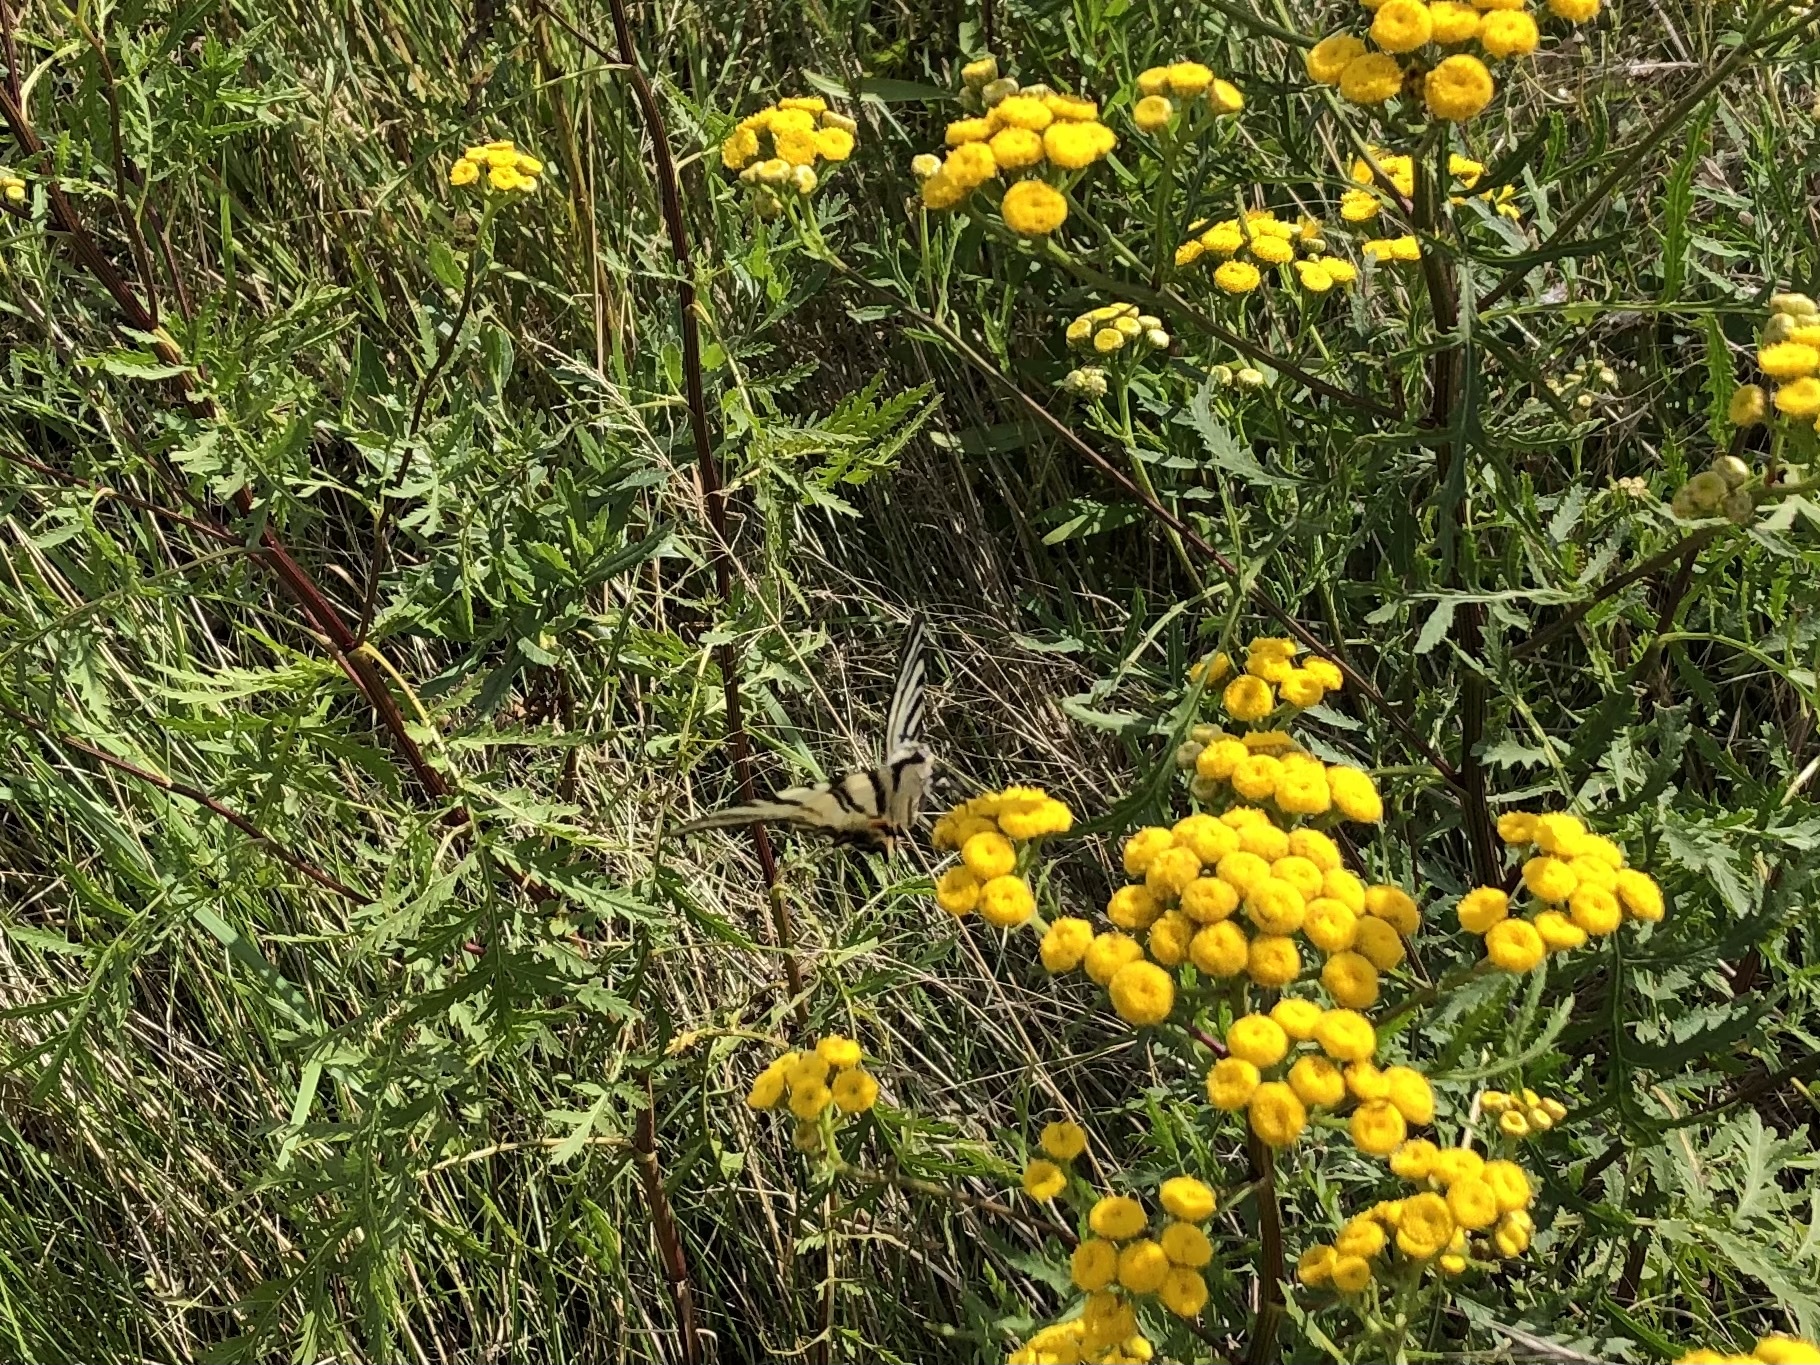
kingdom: Animalia
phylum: Arthropoda
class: Insecta
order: Lepidoptera
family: Papilionidae
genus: Iphiclides
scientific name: Iphiclides podalirius
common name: Scarce swallowtail
